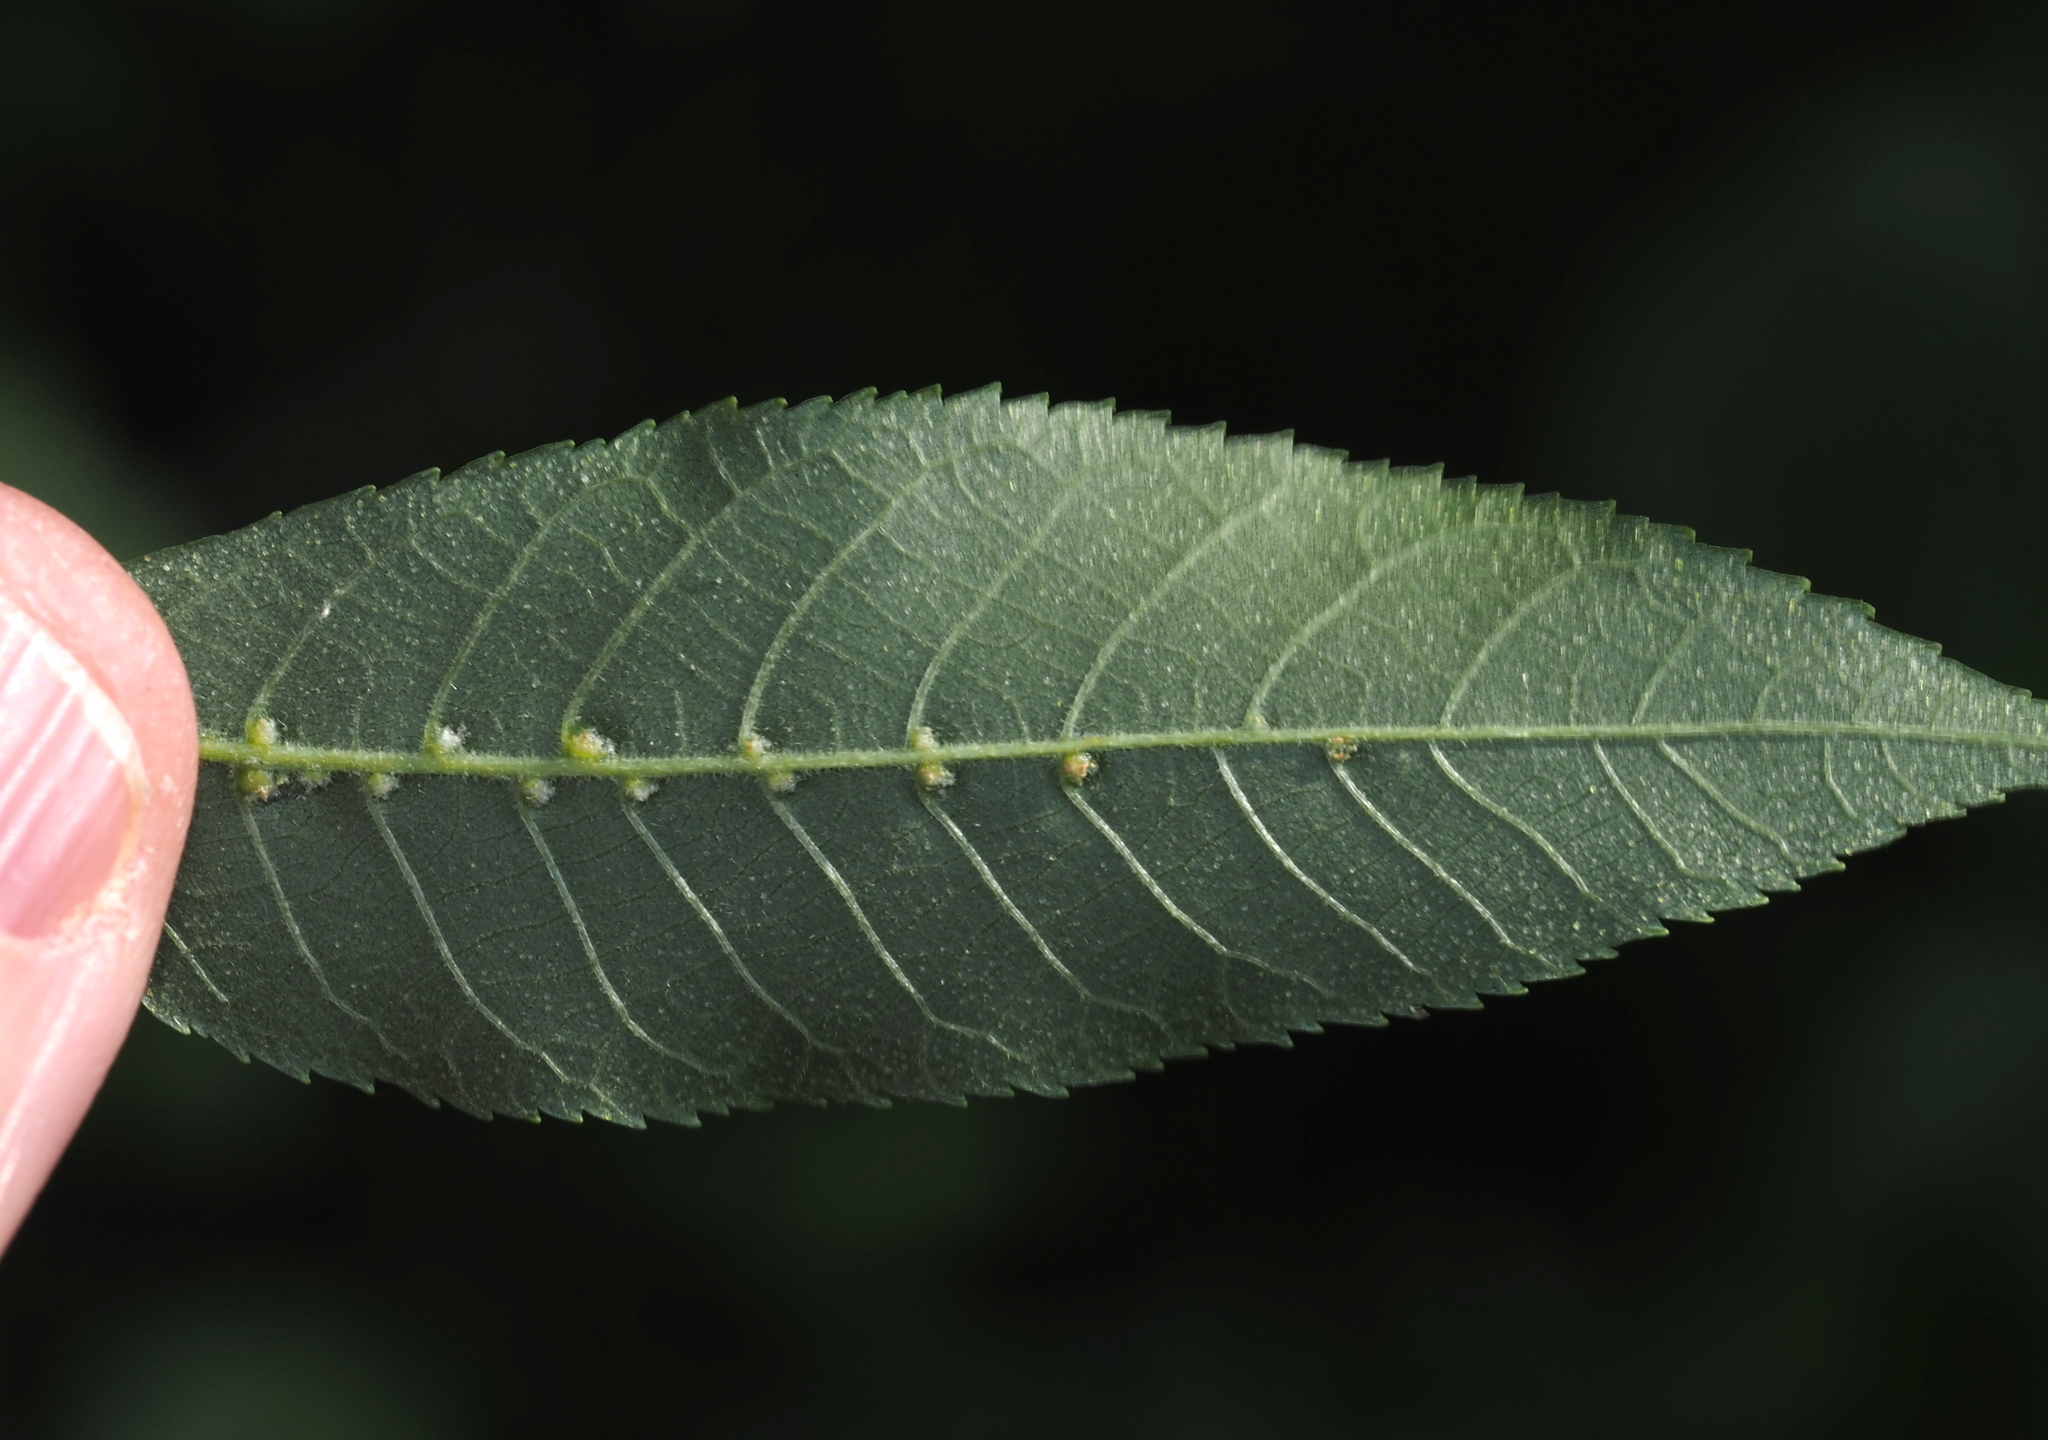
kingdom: Animalia
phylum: Arthropoda
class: Arachnida
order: Trombidiformes
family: Eriophyidae
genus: Aceria
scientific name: Aceria
